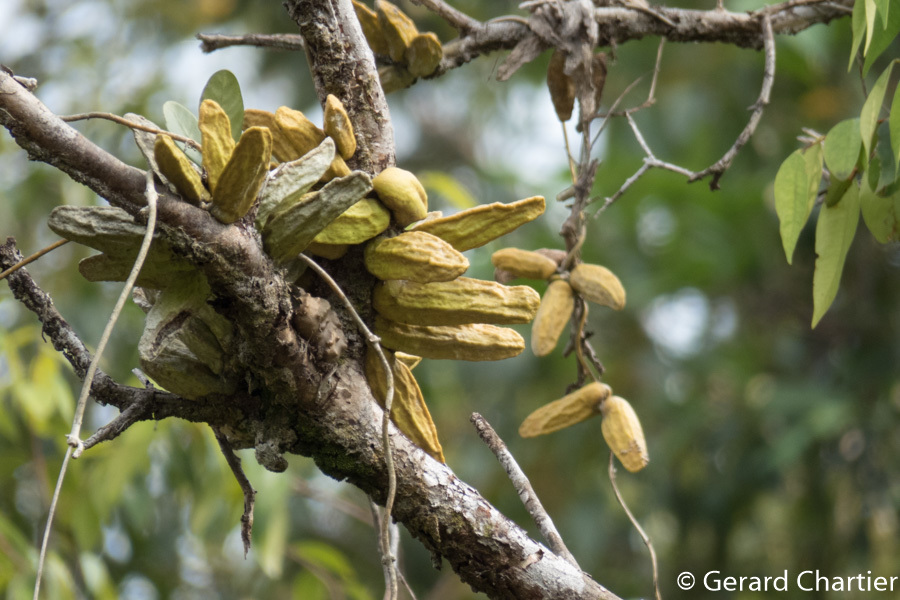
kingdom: Plantae
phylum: Tracheophyta
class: Magnoliopsida
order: Gentianales
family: Apocynaceae
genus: Dischidia
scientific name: Dischidia major
